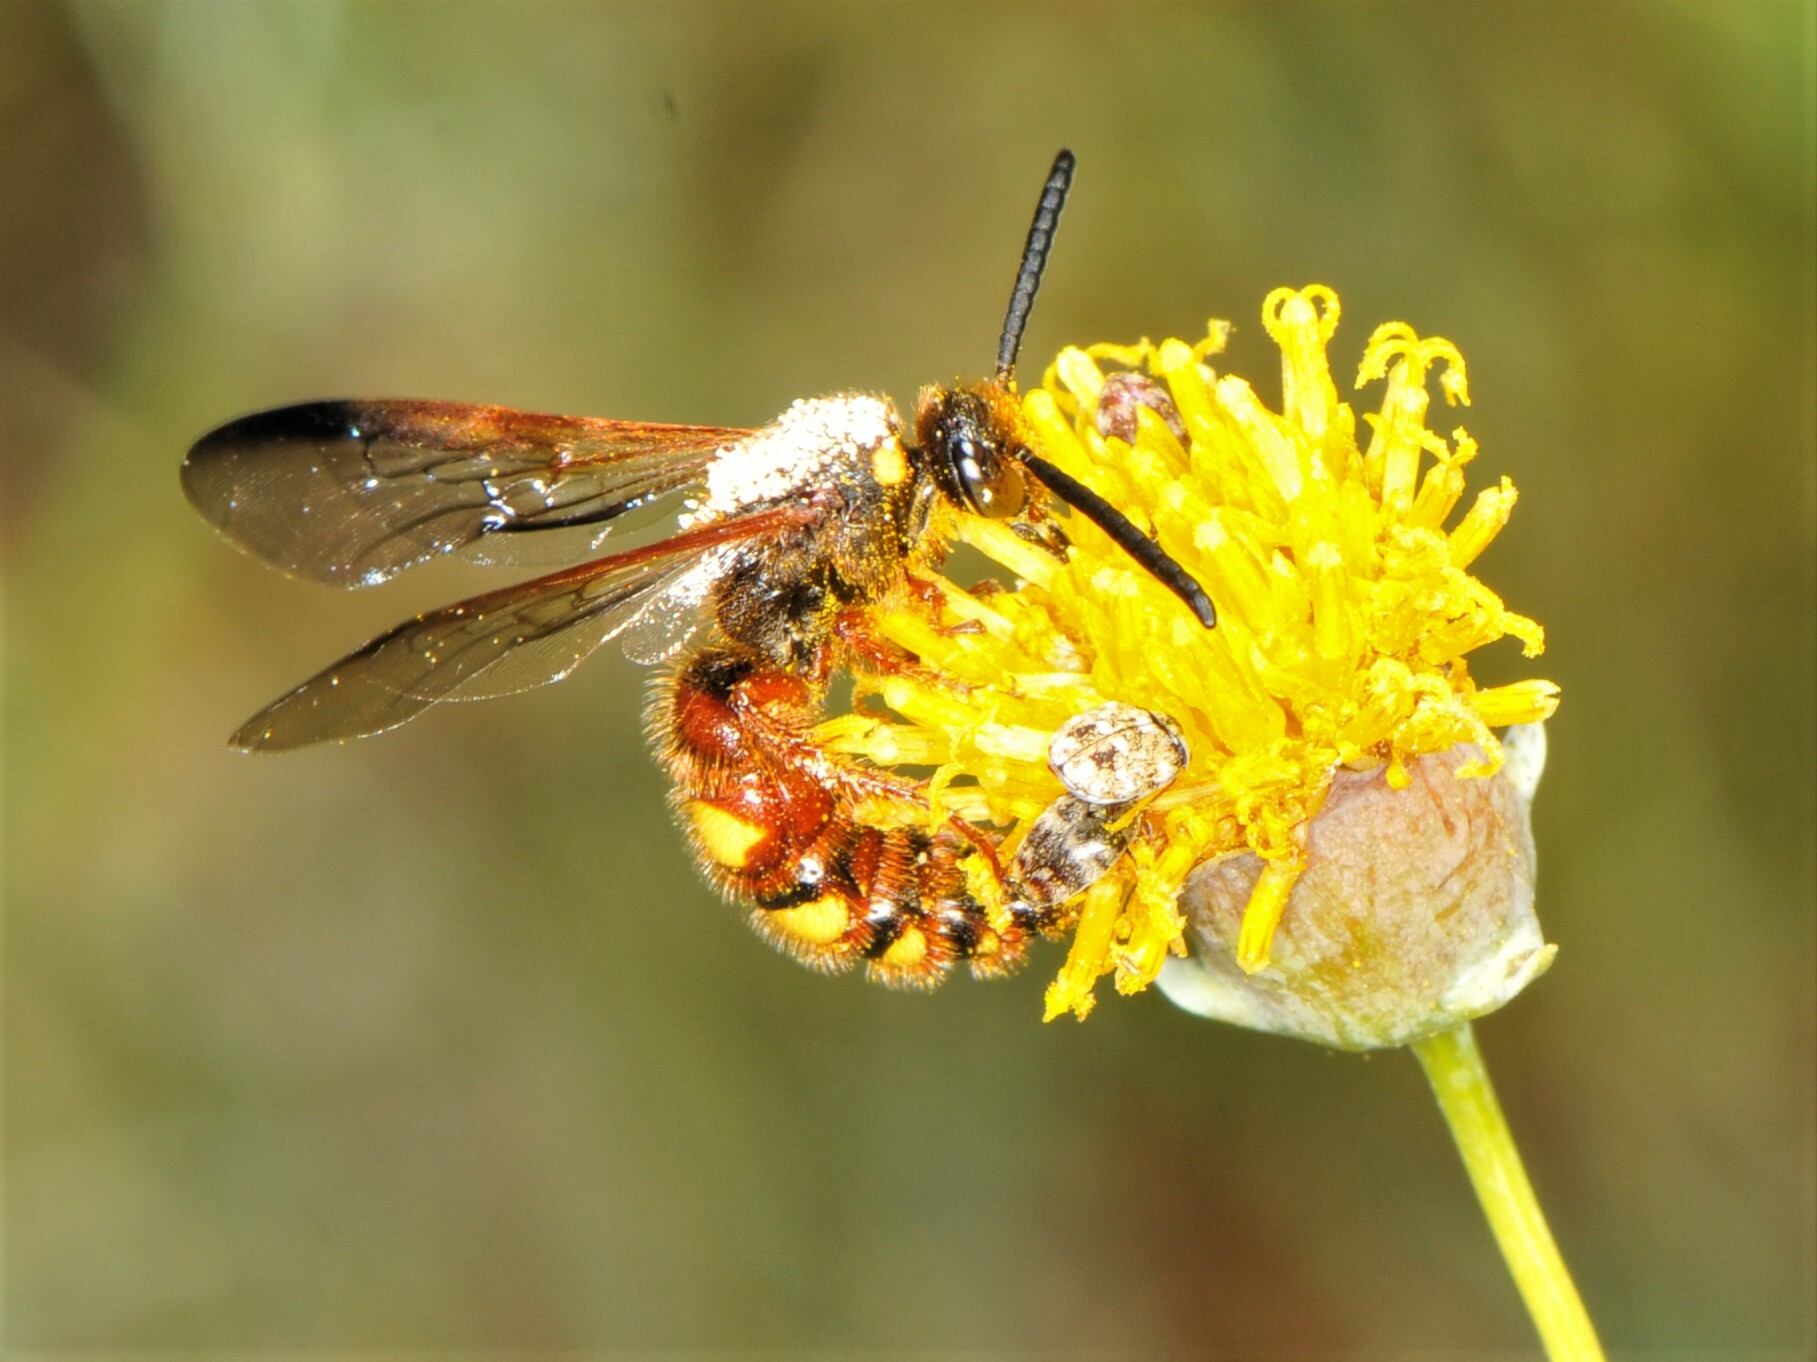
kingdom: Animalia
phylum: Arthropoda
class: Insecta
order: Hymenoptera
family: Scoliidae
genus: Scolia
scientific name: Scolia nobilitata
